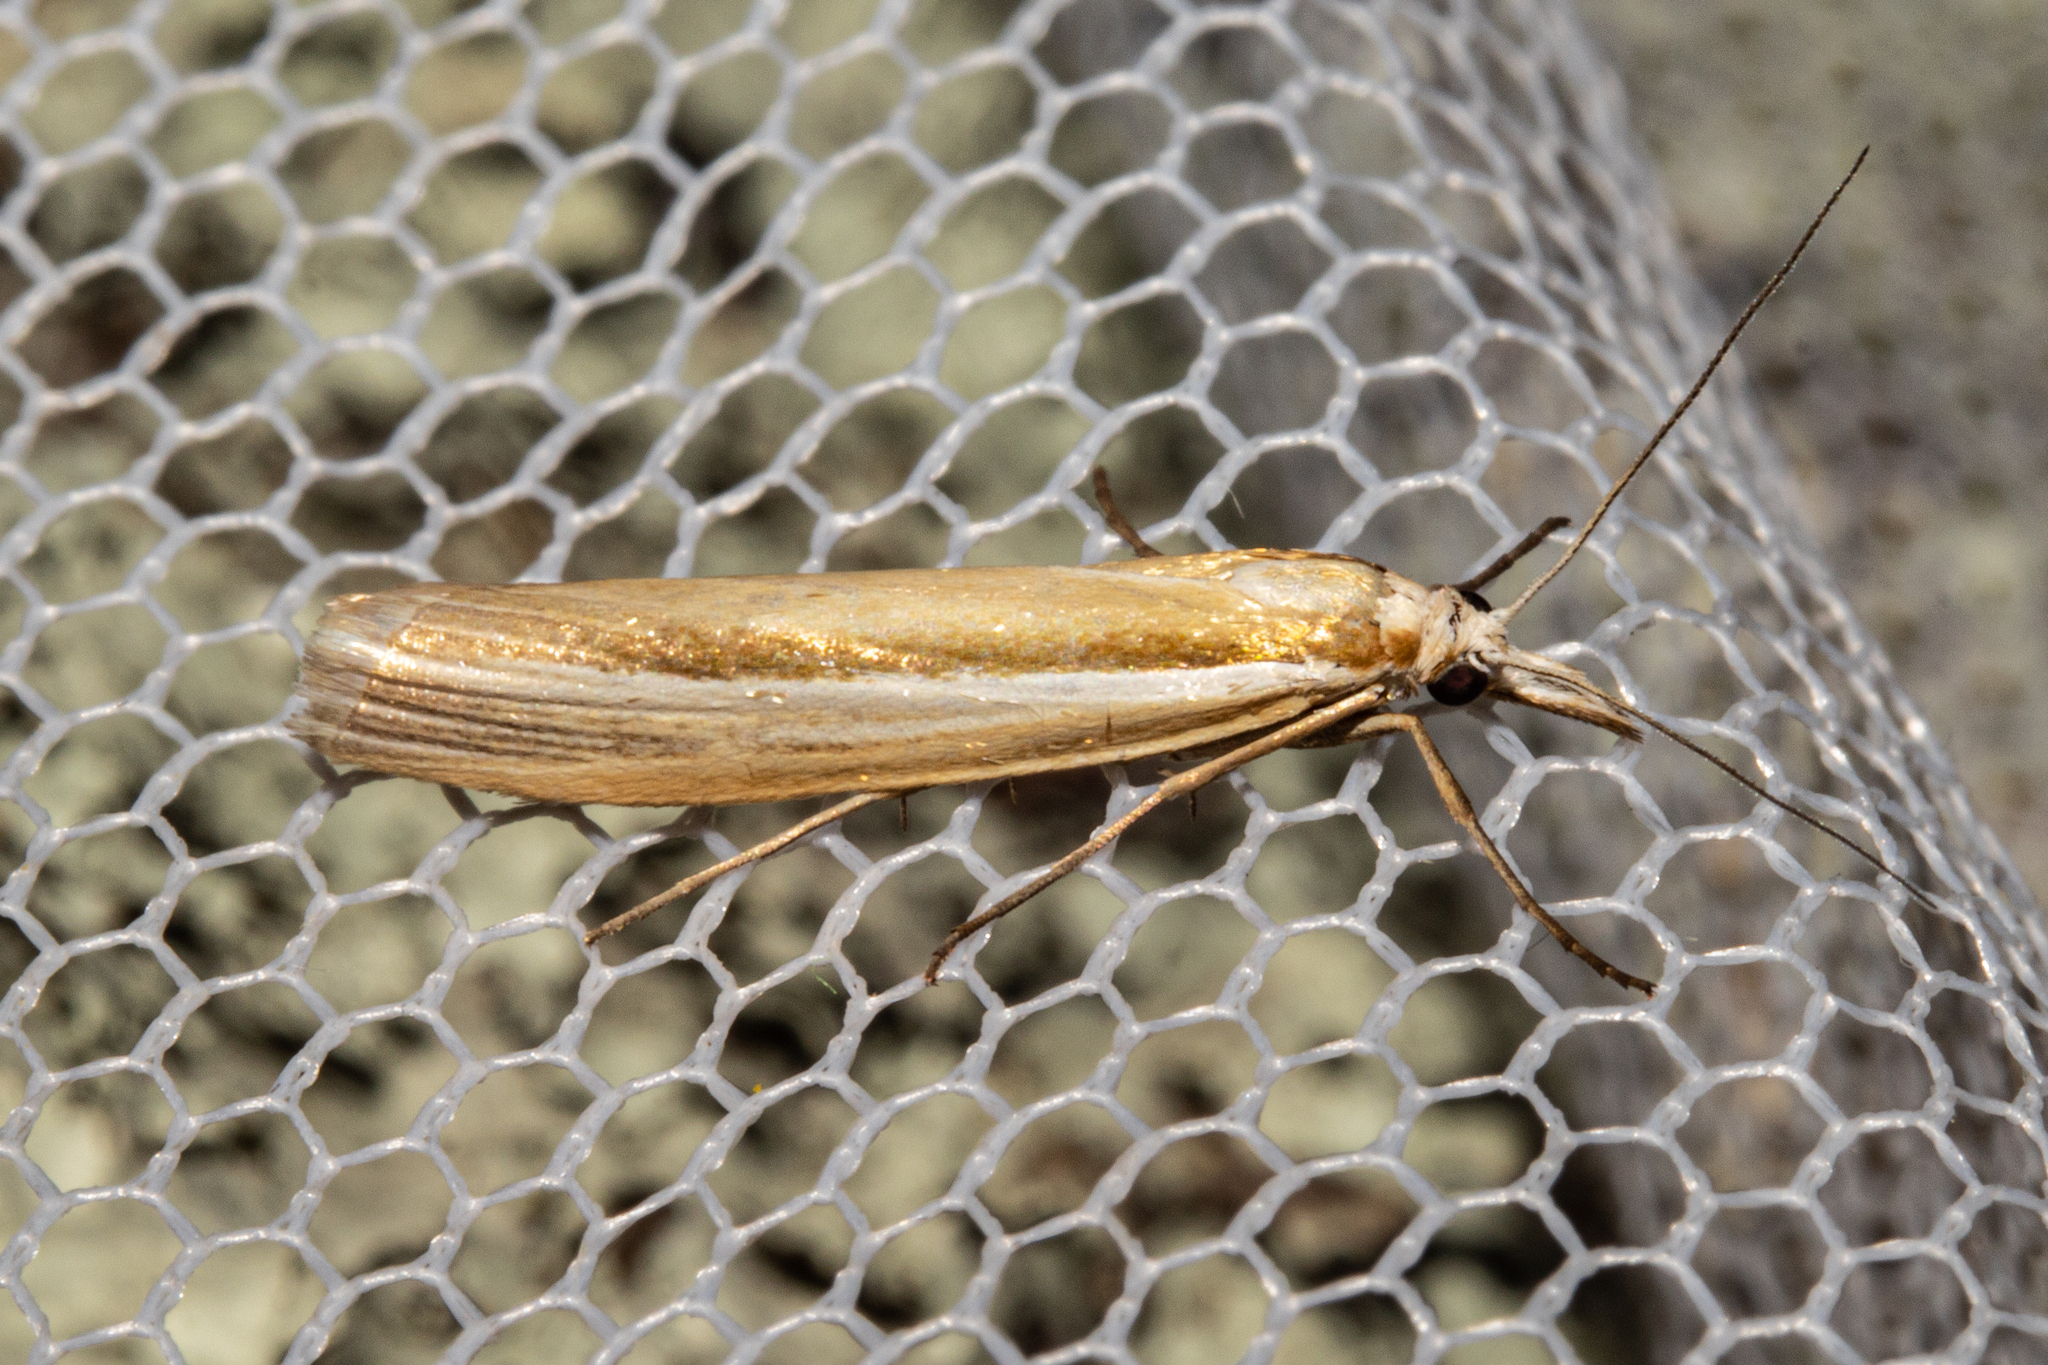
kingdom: Animalia
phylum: Arthropoda
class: Insecta
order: Lepidoptera
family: Crambidae
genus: Orocrambus
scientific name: Orocrambus ramosellus
